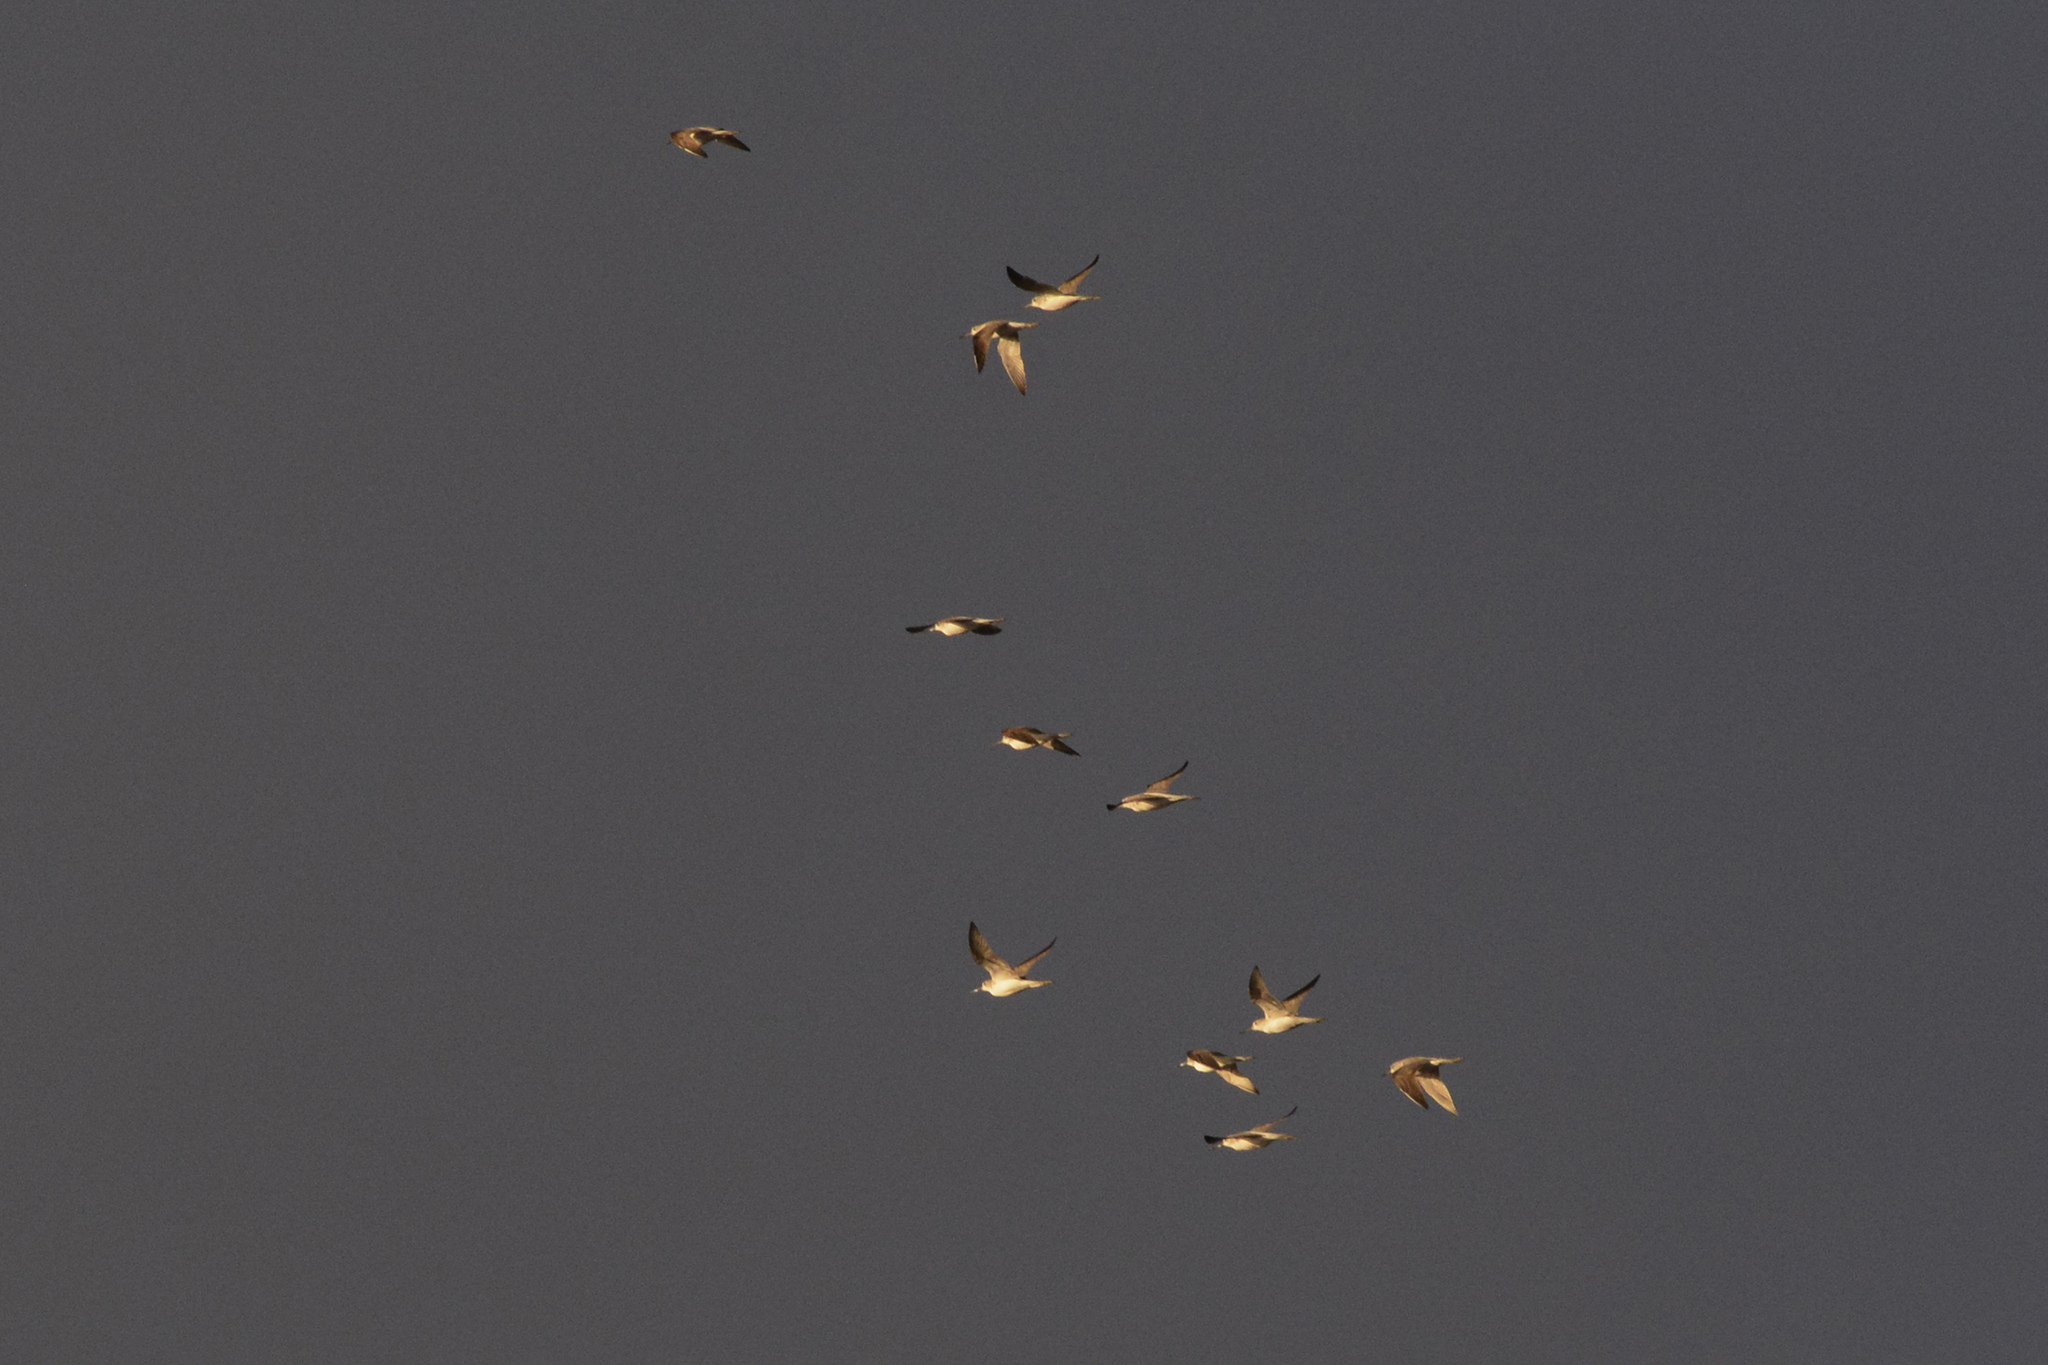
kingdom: Animalia
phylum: Chordata
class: Aves
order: Charadriiformes
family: Scolopacidae
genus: Tringa
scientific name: Tringa nebularia
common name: Common greenshank
